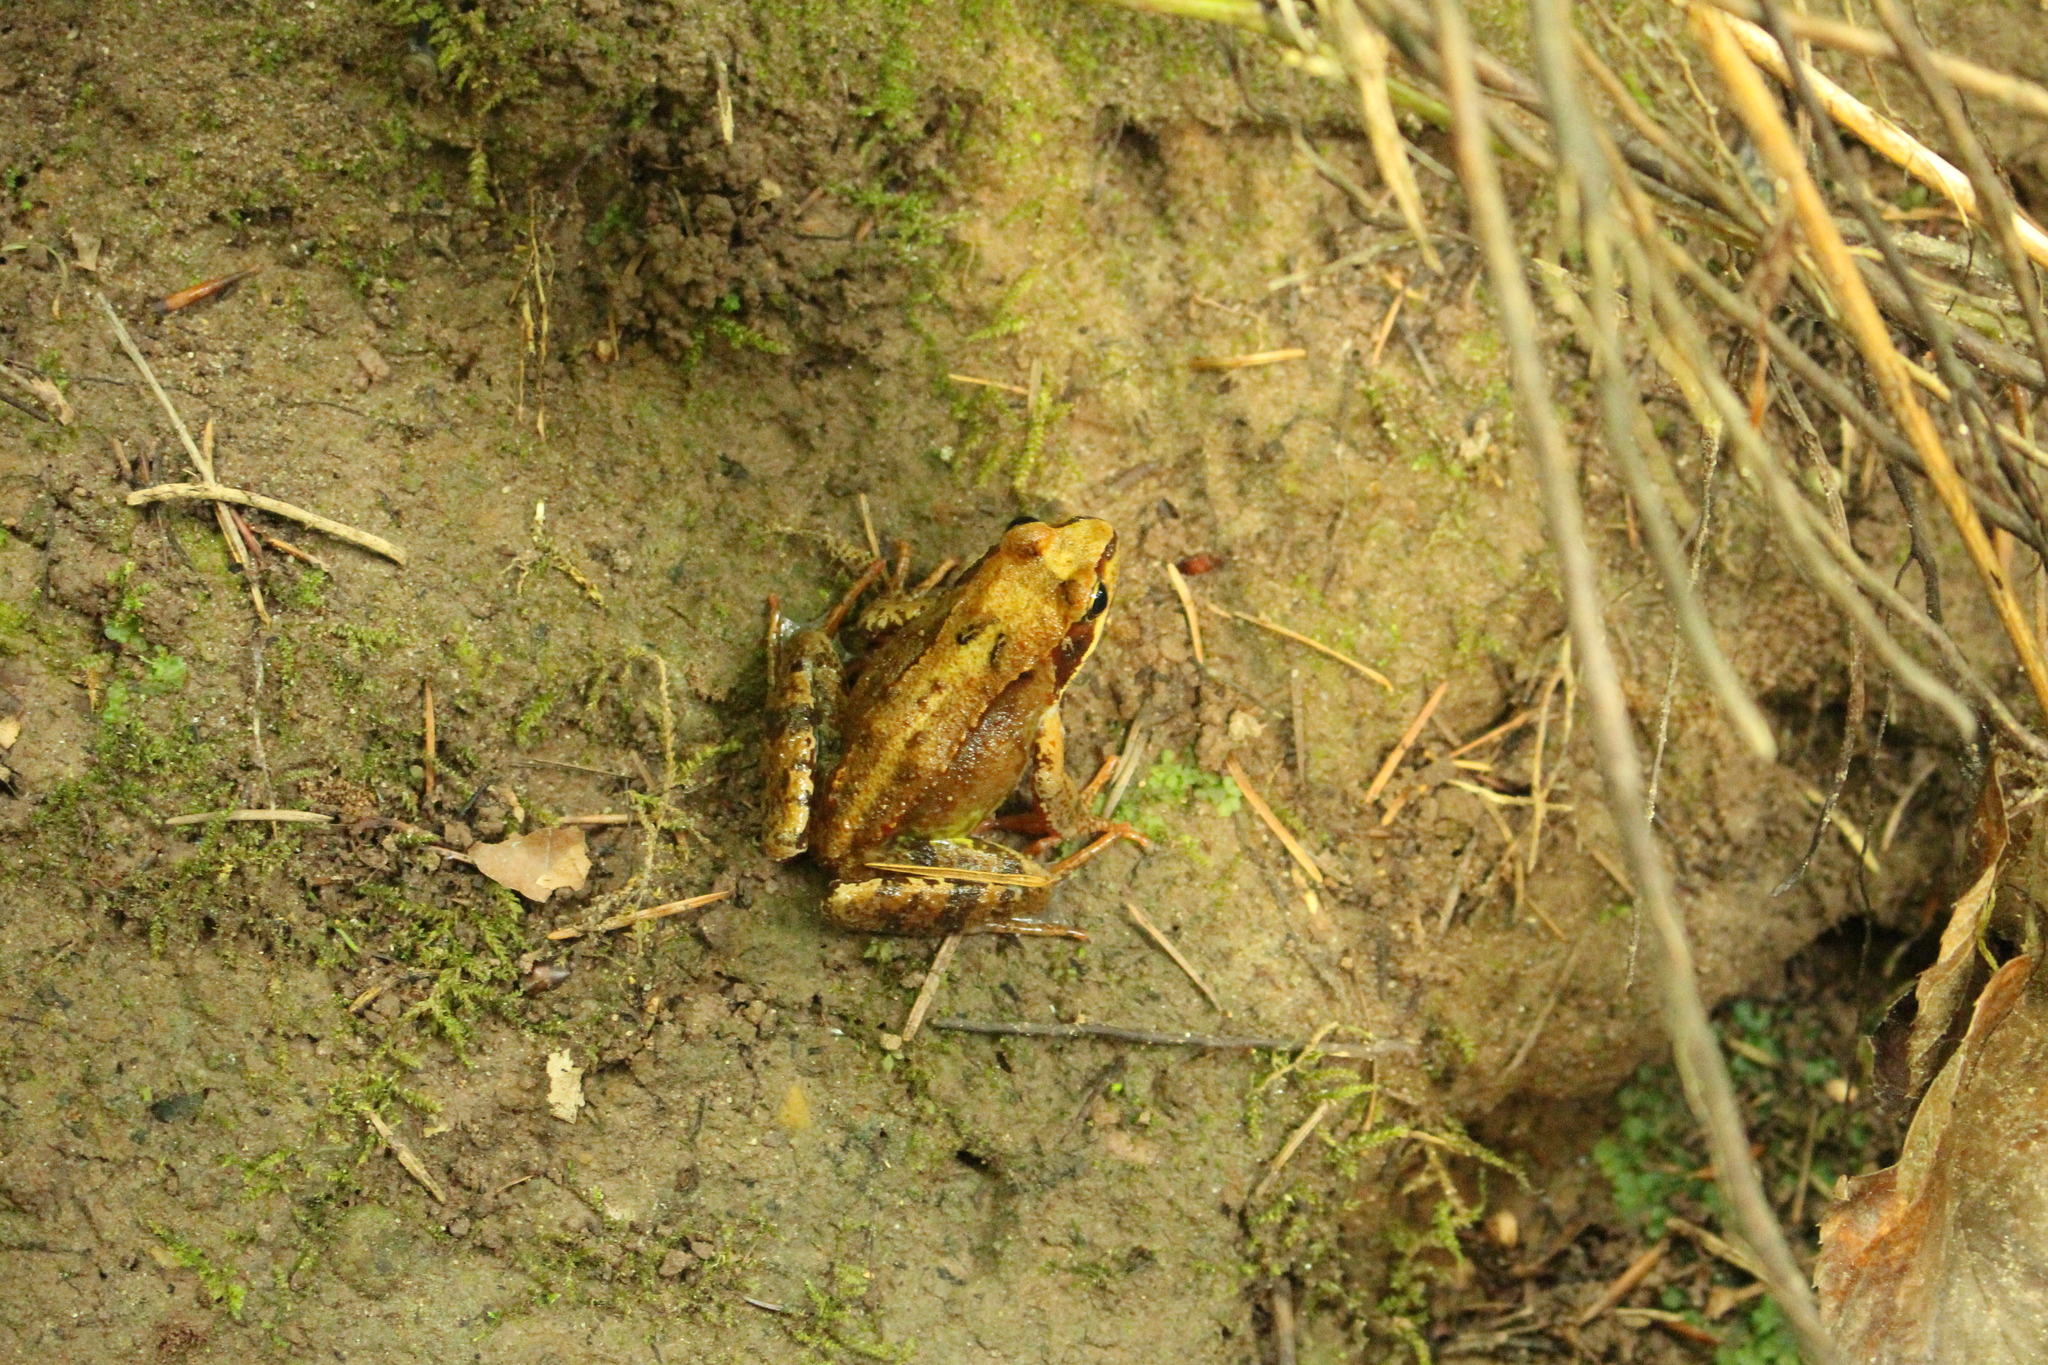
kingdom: Animalia
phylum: Chordata
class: Amphibia
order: Anura
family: Ranidae
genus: Rana
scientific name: Rana temporaria
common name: Common frog
